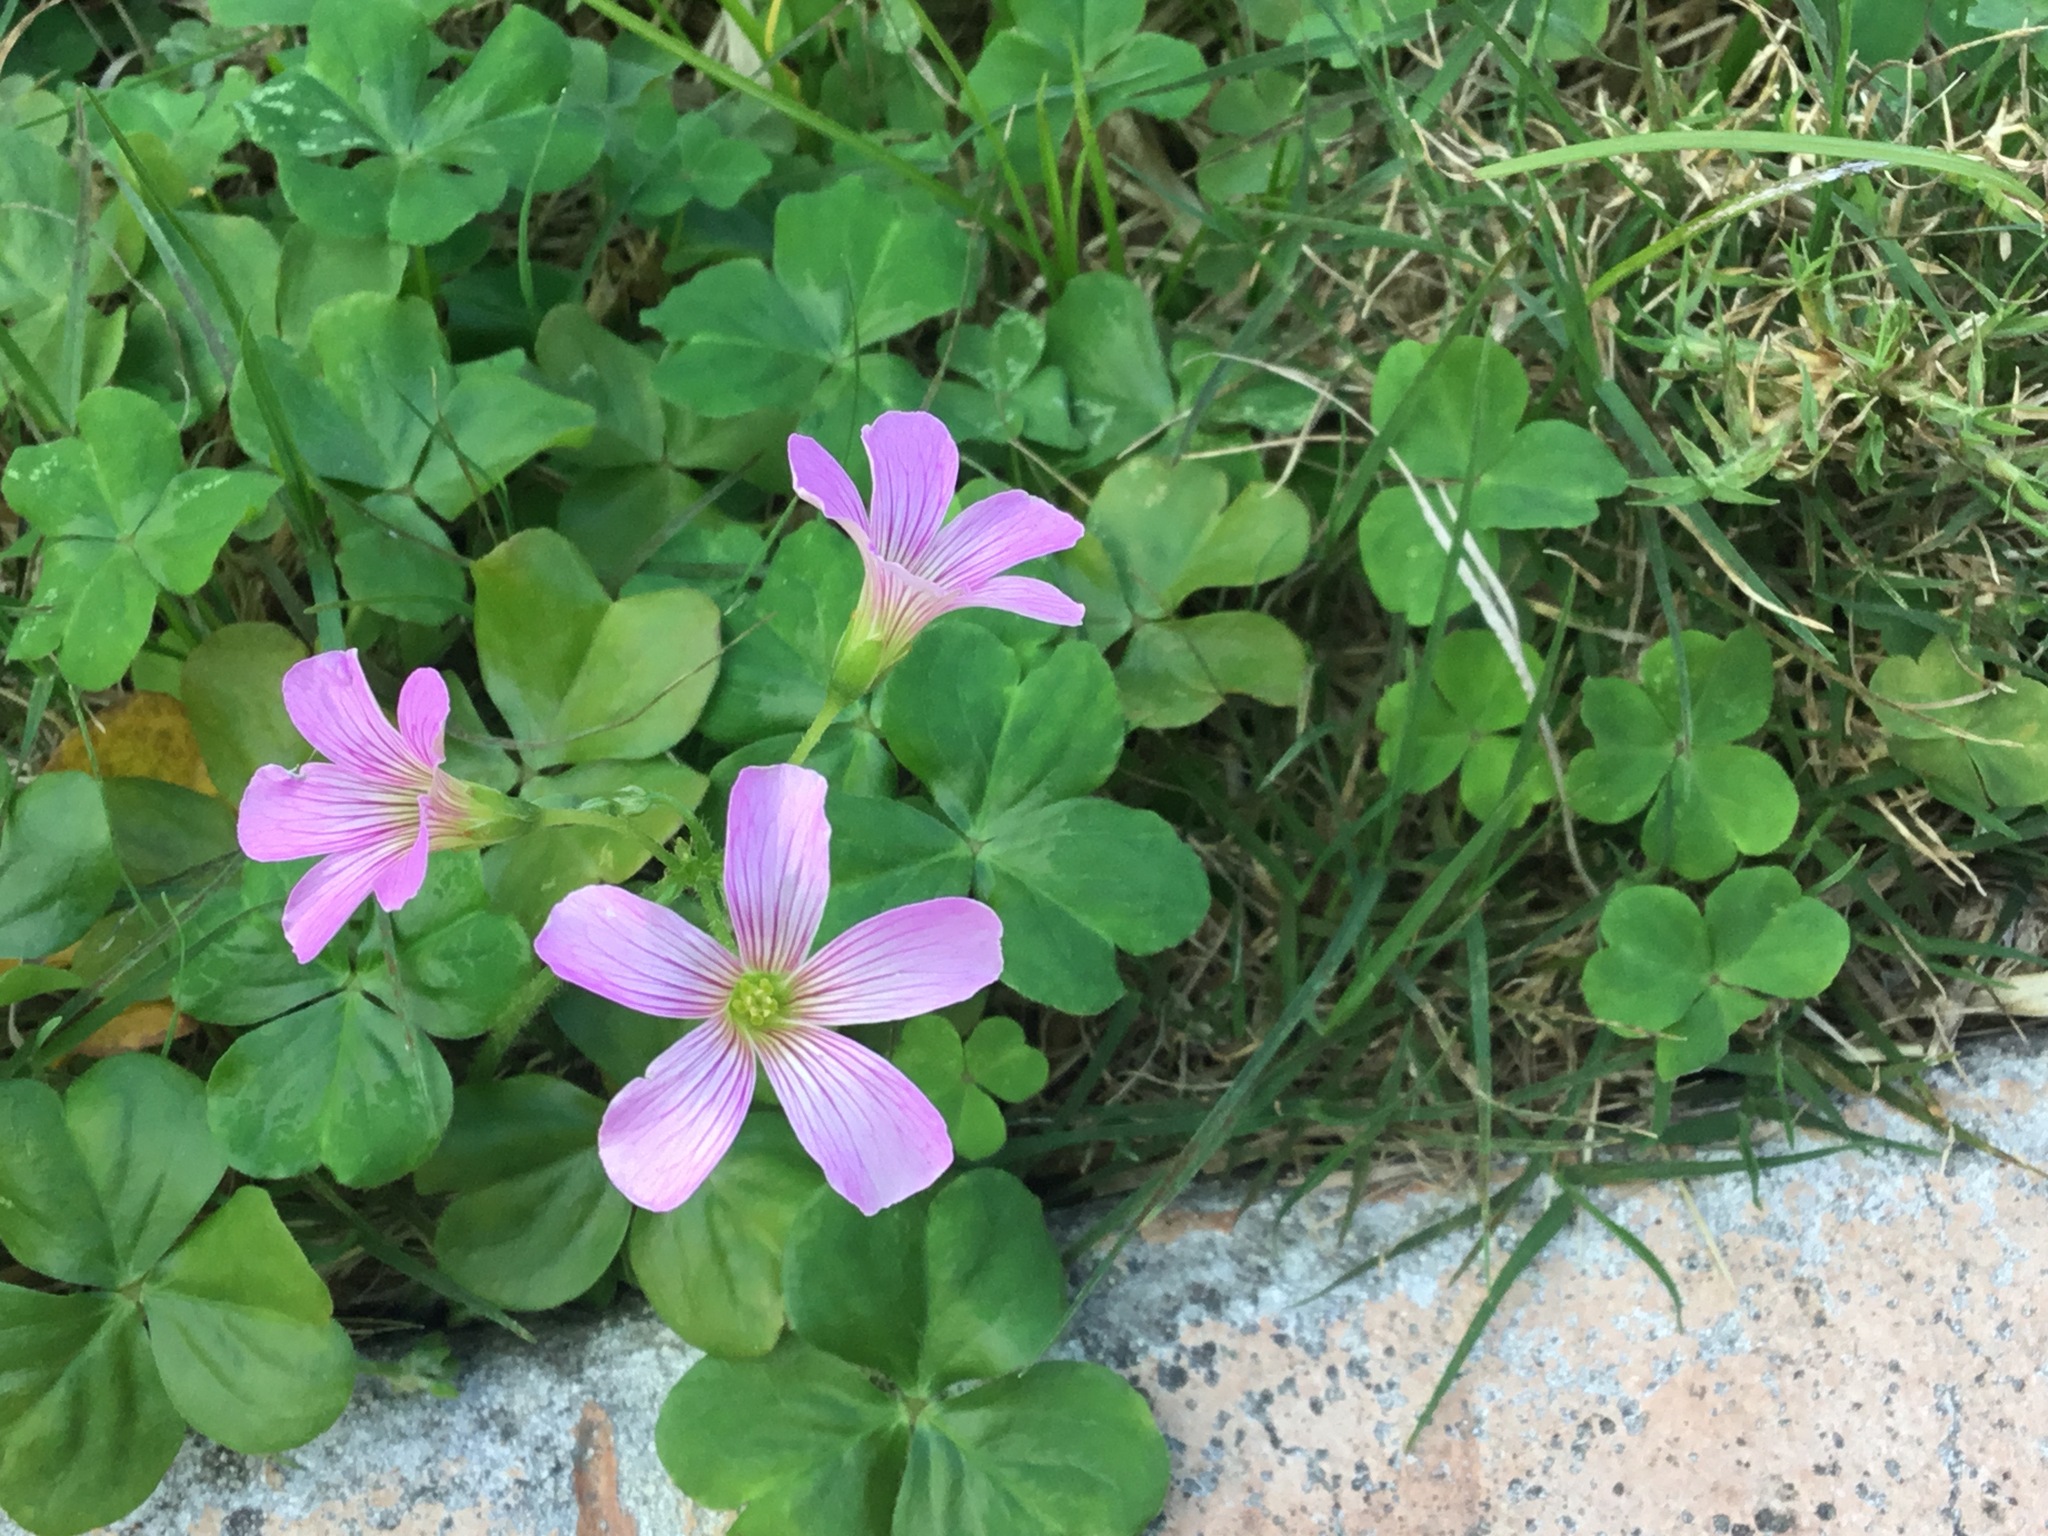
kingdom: Plantae
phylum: Tracheophyta
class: Magnoliopsida
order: Oxalidales
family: Oxalidaceae
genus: Oxalis
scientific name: Oxalis debilis
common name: Large-flowered pink-sorrel
